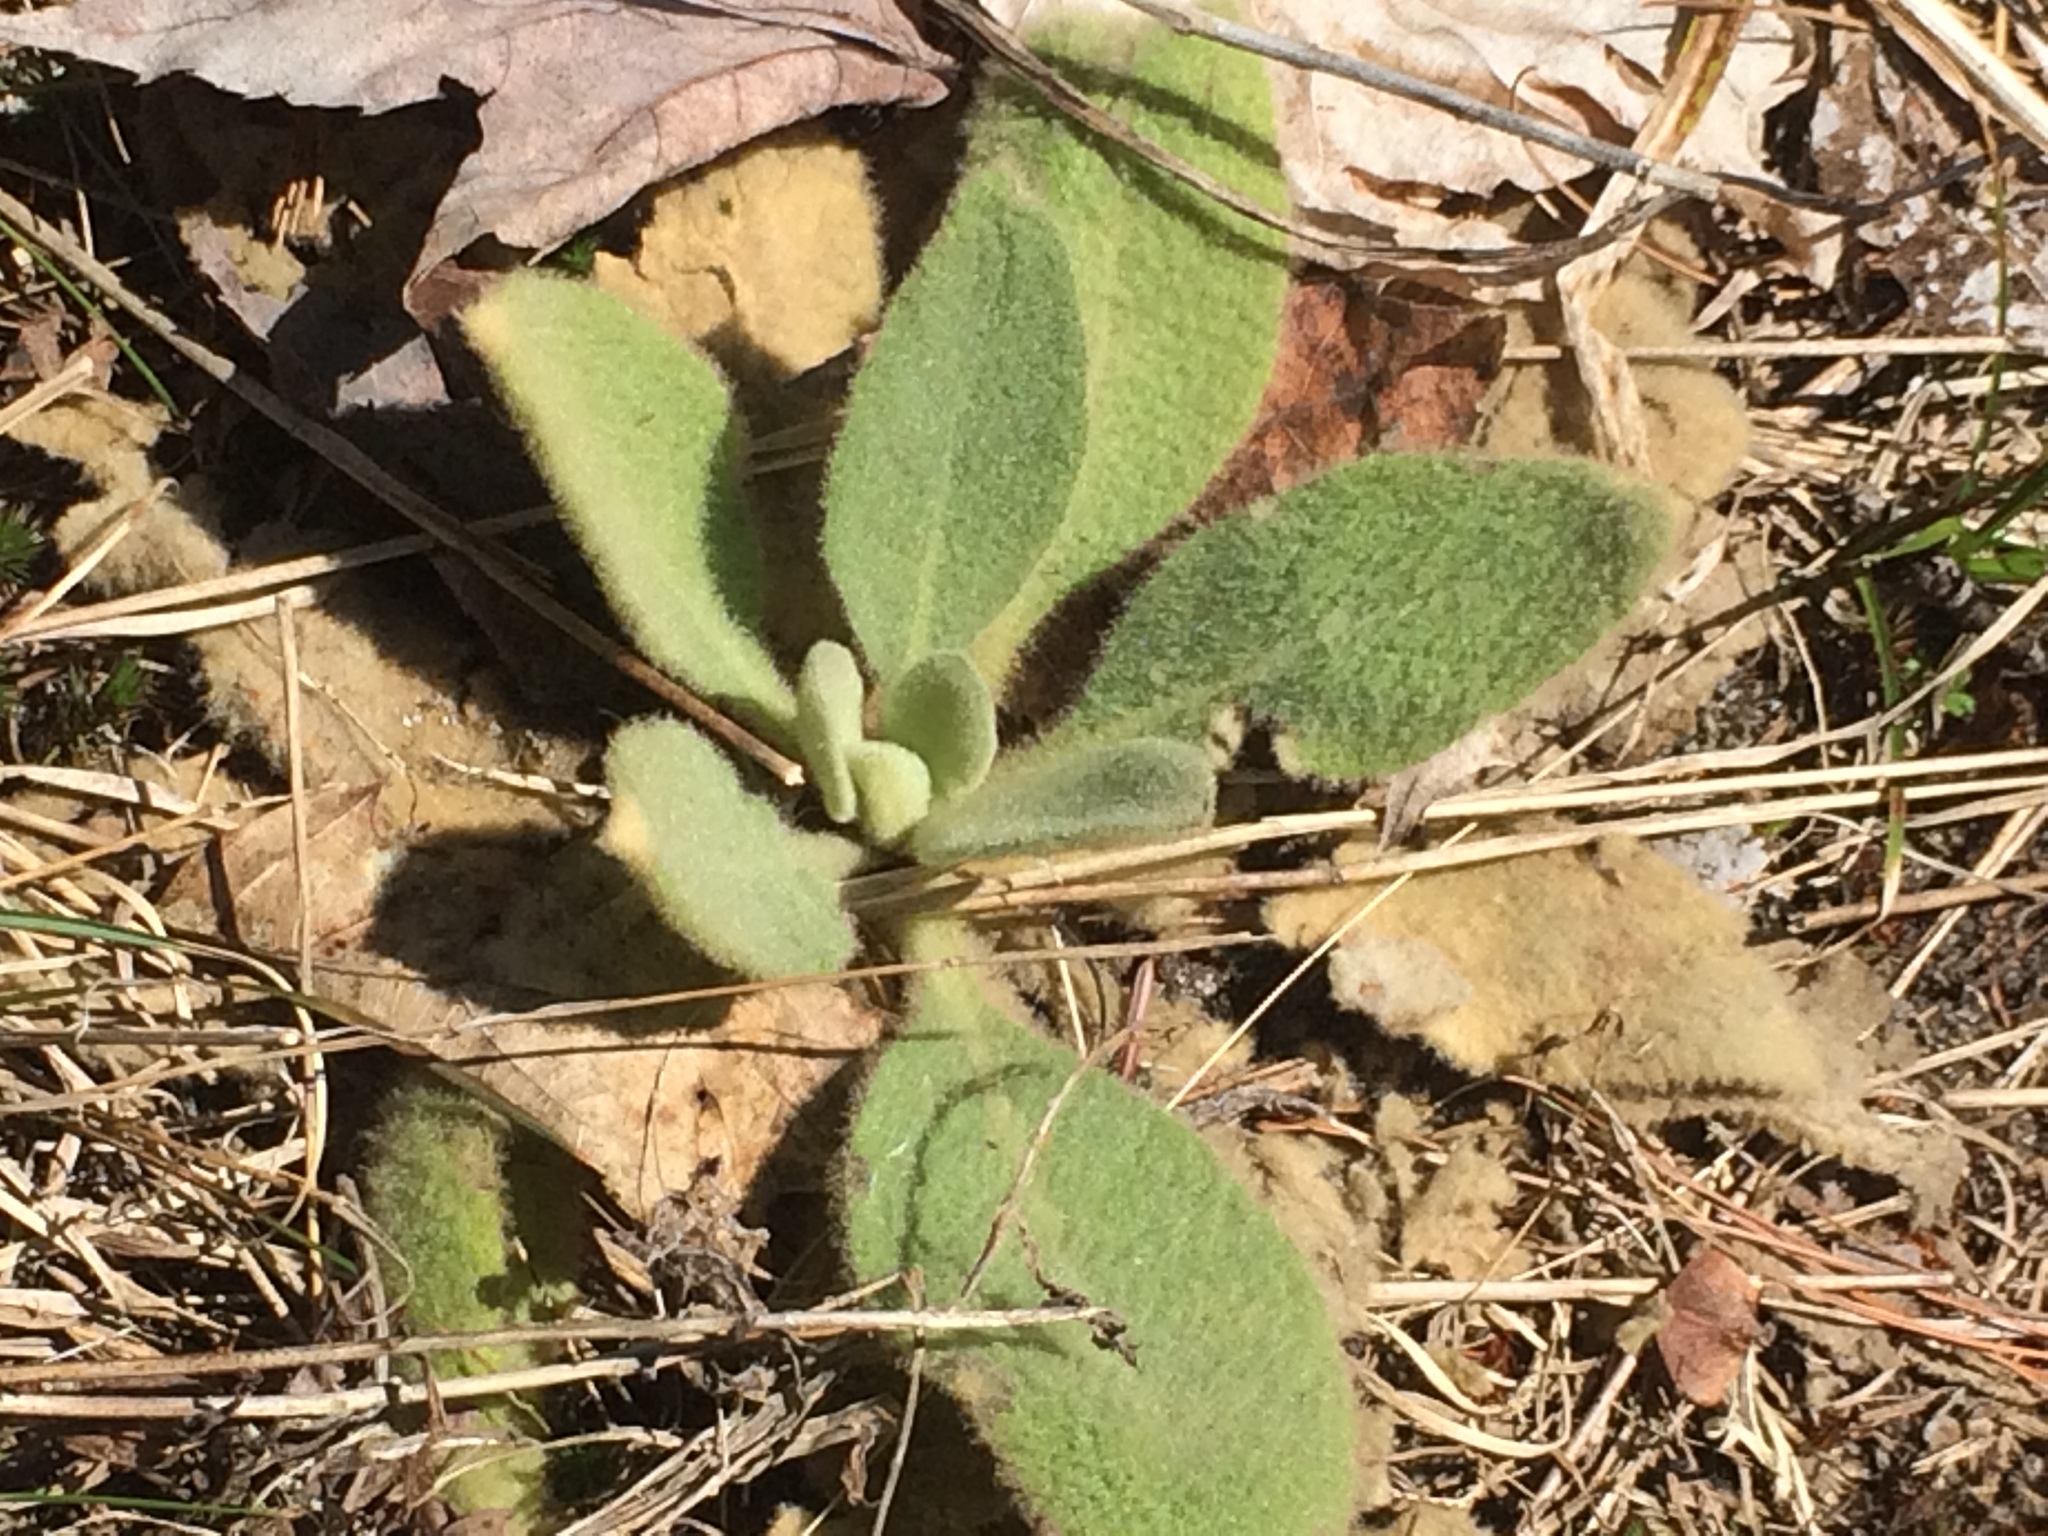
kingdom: Plantae
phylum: Tracheophyta
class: Magnoliopsida
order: Lamiales
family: Scrophulariaceae
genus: Verbascum
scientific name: Verbascum thapsus
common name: Common mullein
